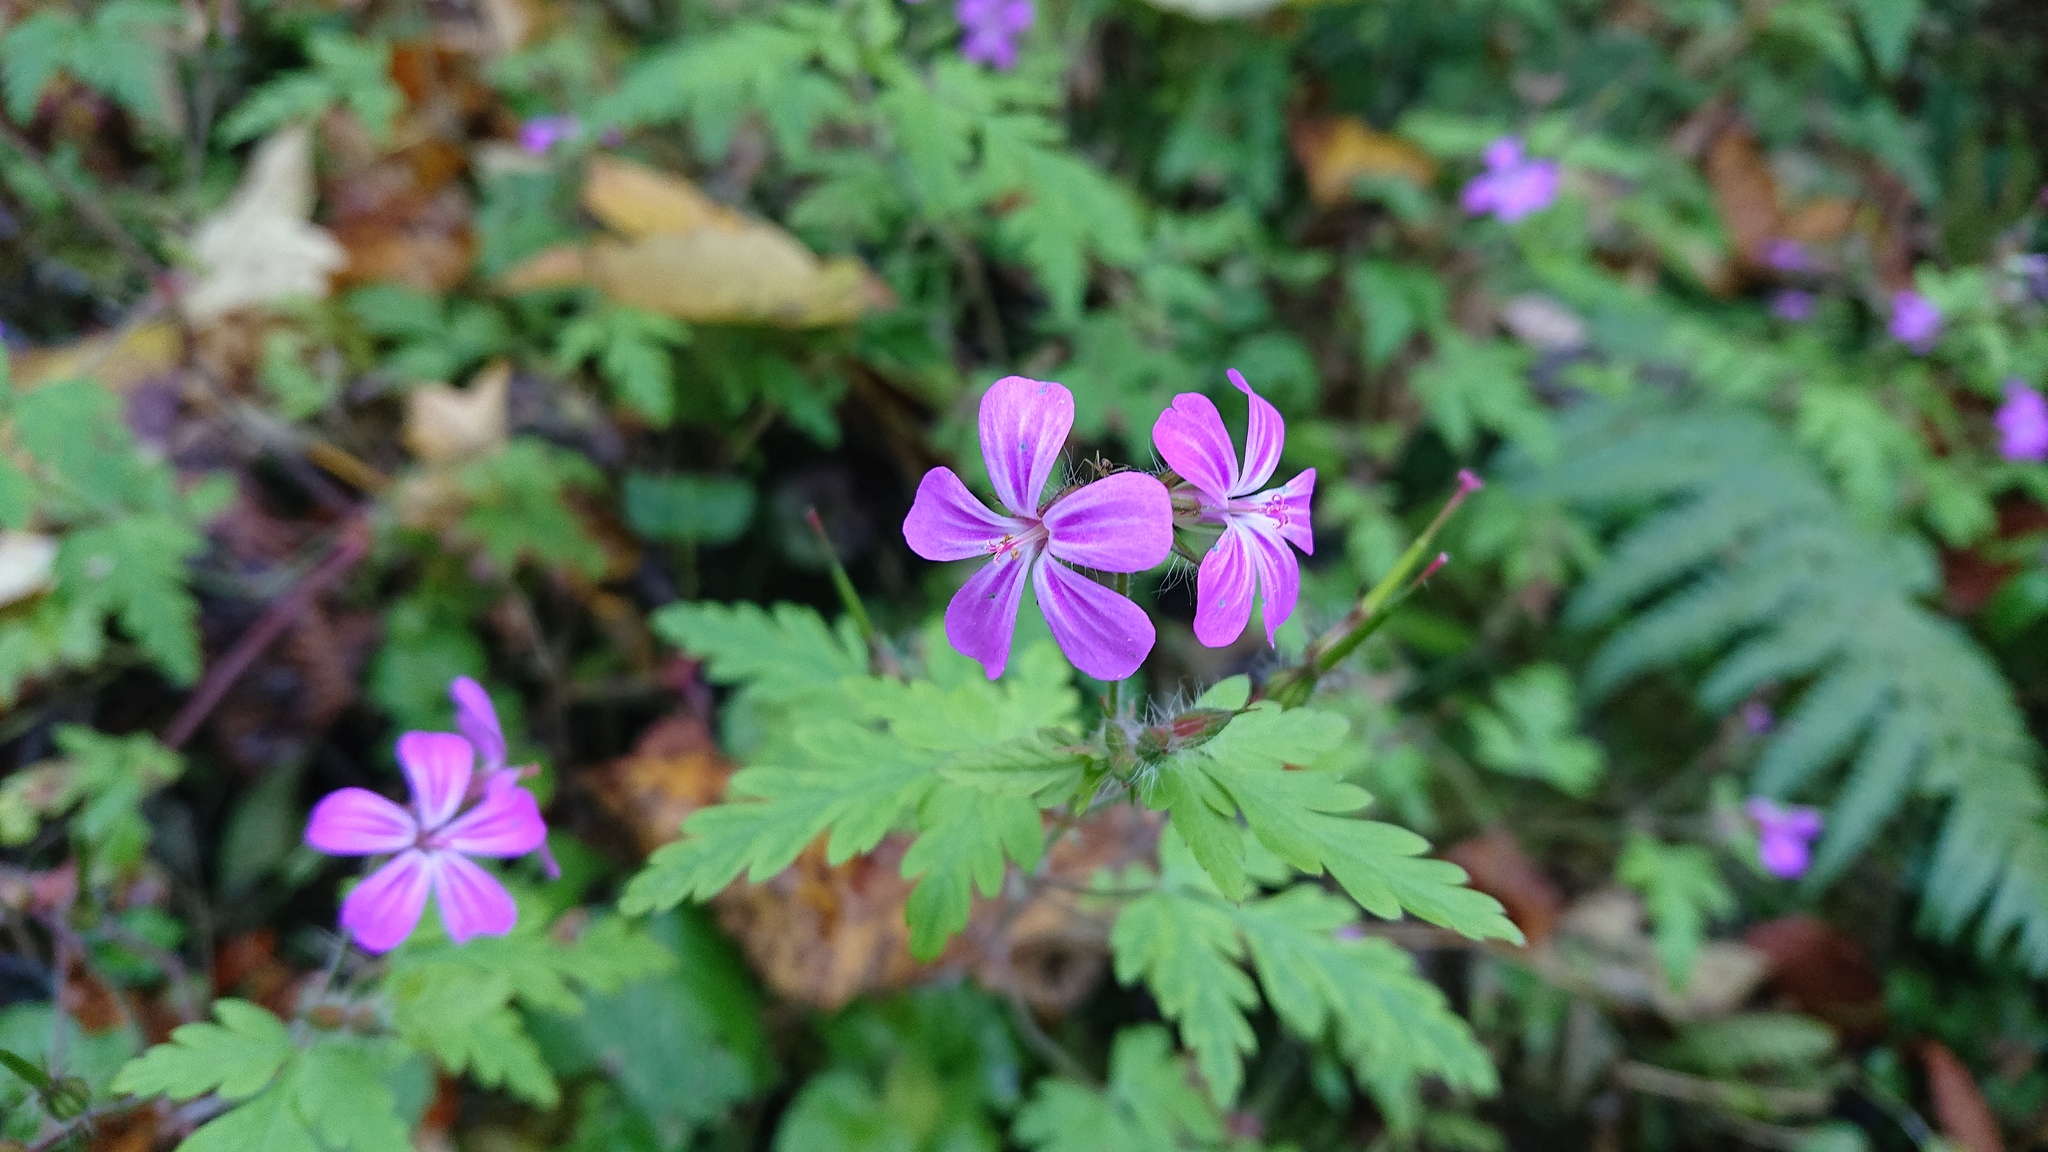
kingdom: Plantae
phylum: Tracheophyta
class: Magnoliopsida
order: Geraniales
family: Geraniaceae
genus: Geranium
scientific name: Geranium robertianum
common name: Herb-robert
